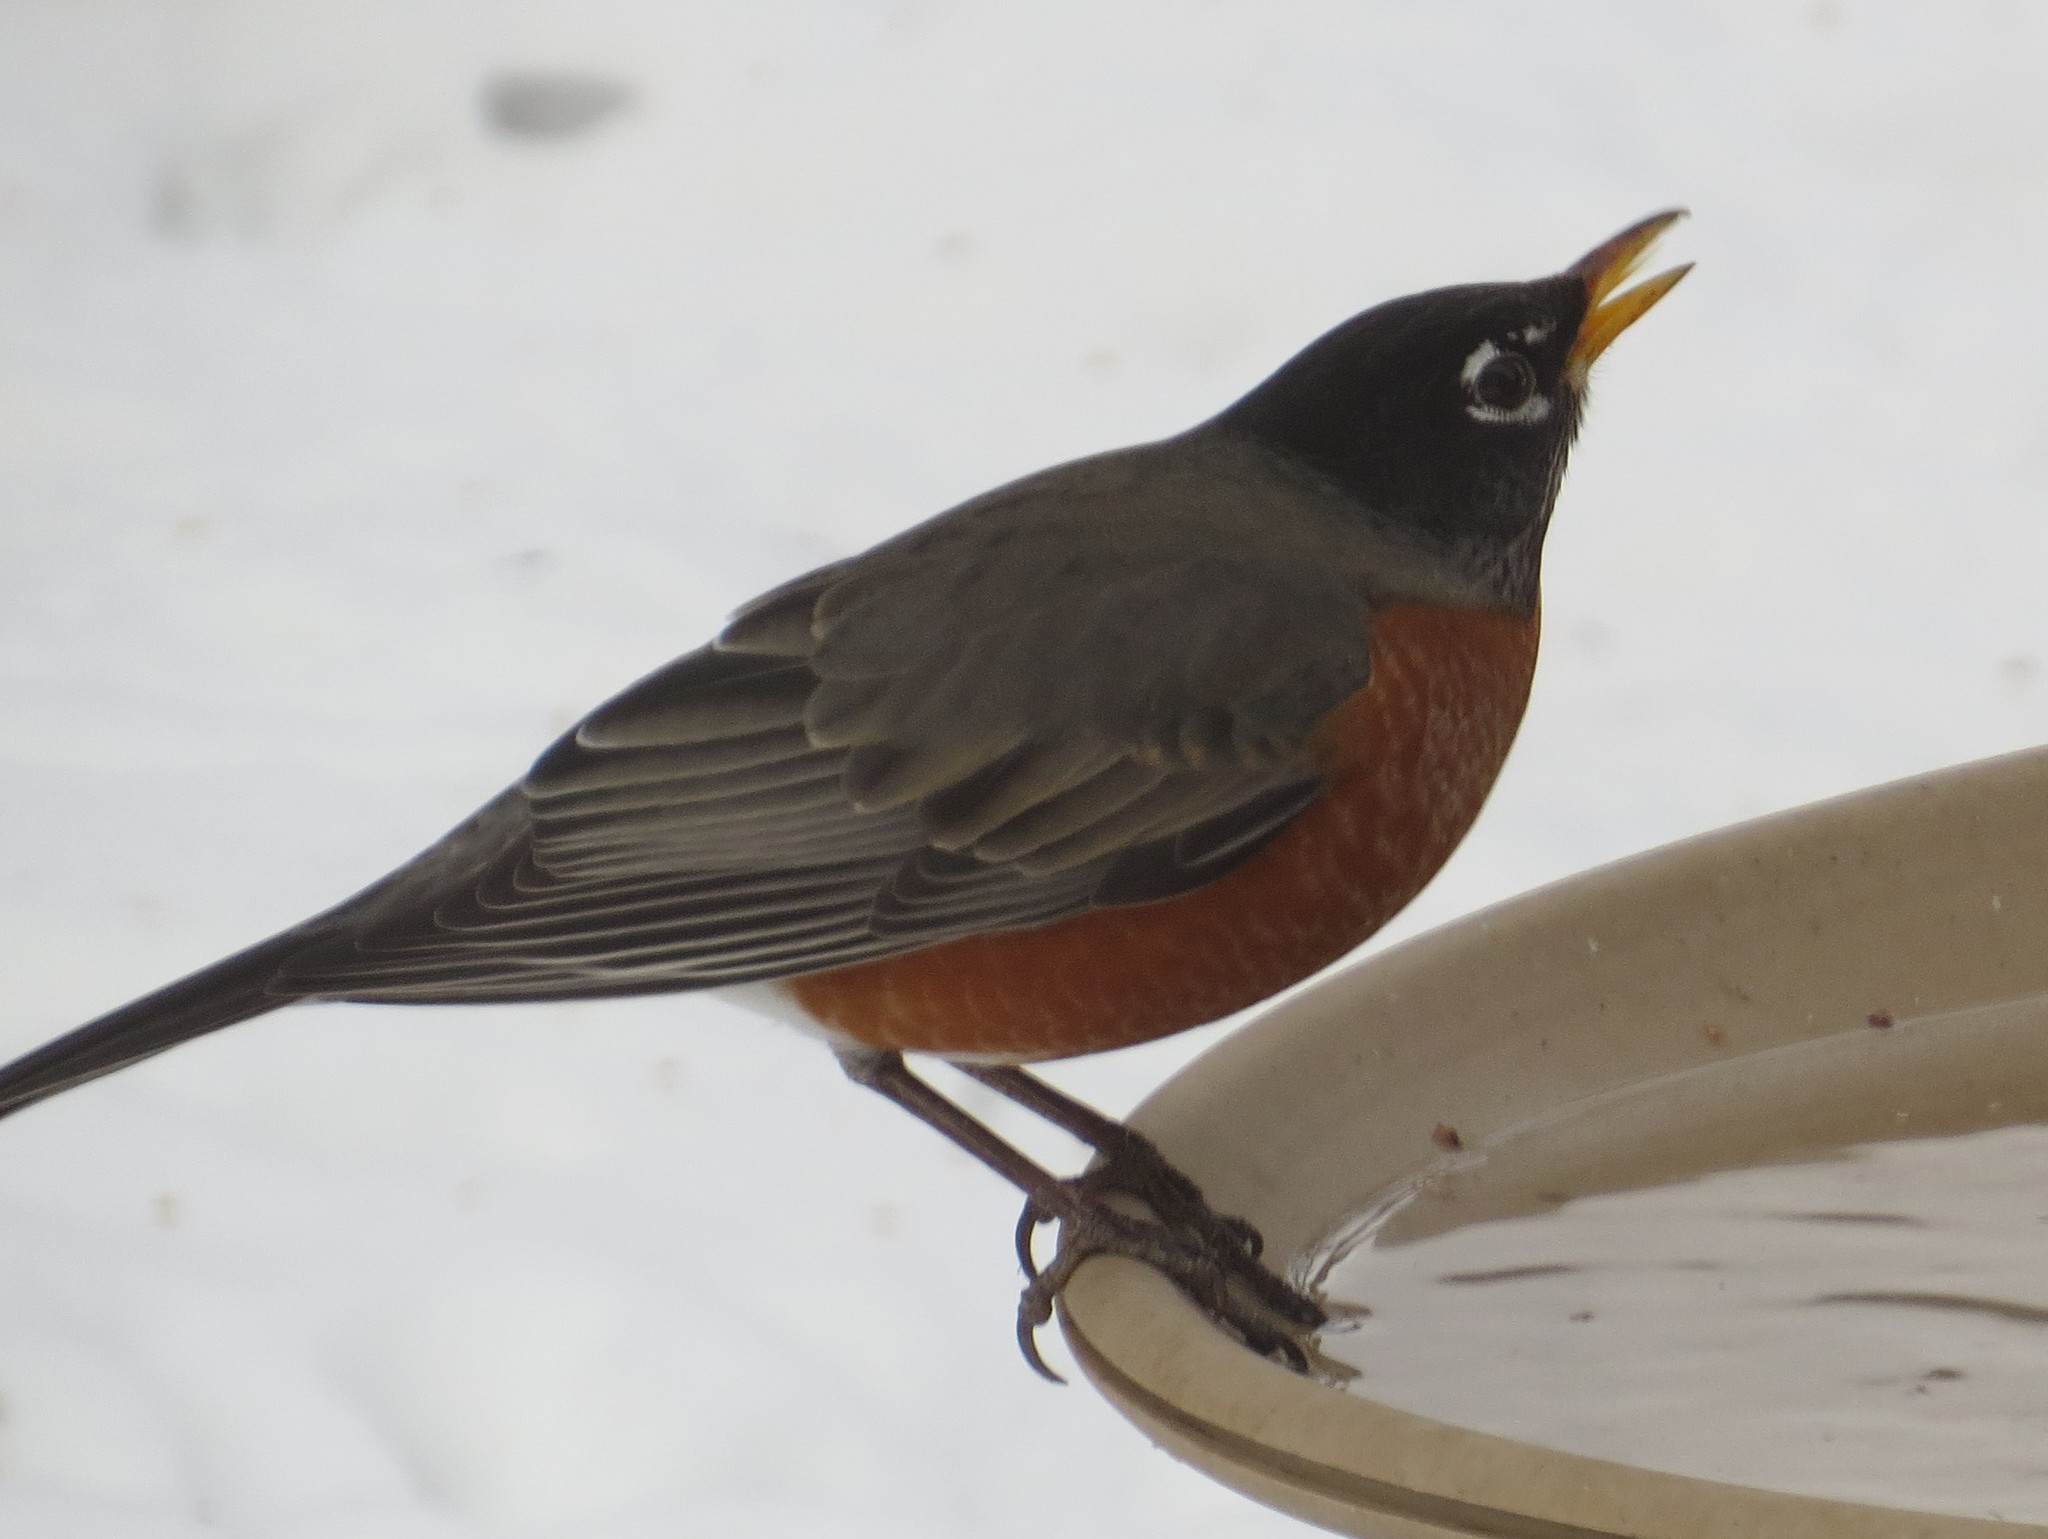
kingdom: Animalia
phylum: Chordata
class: Aves
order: Passeriformes
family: Turdidae
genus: Turdus
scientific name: Turdus migratorius
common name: American robin
